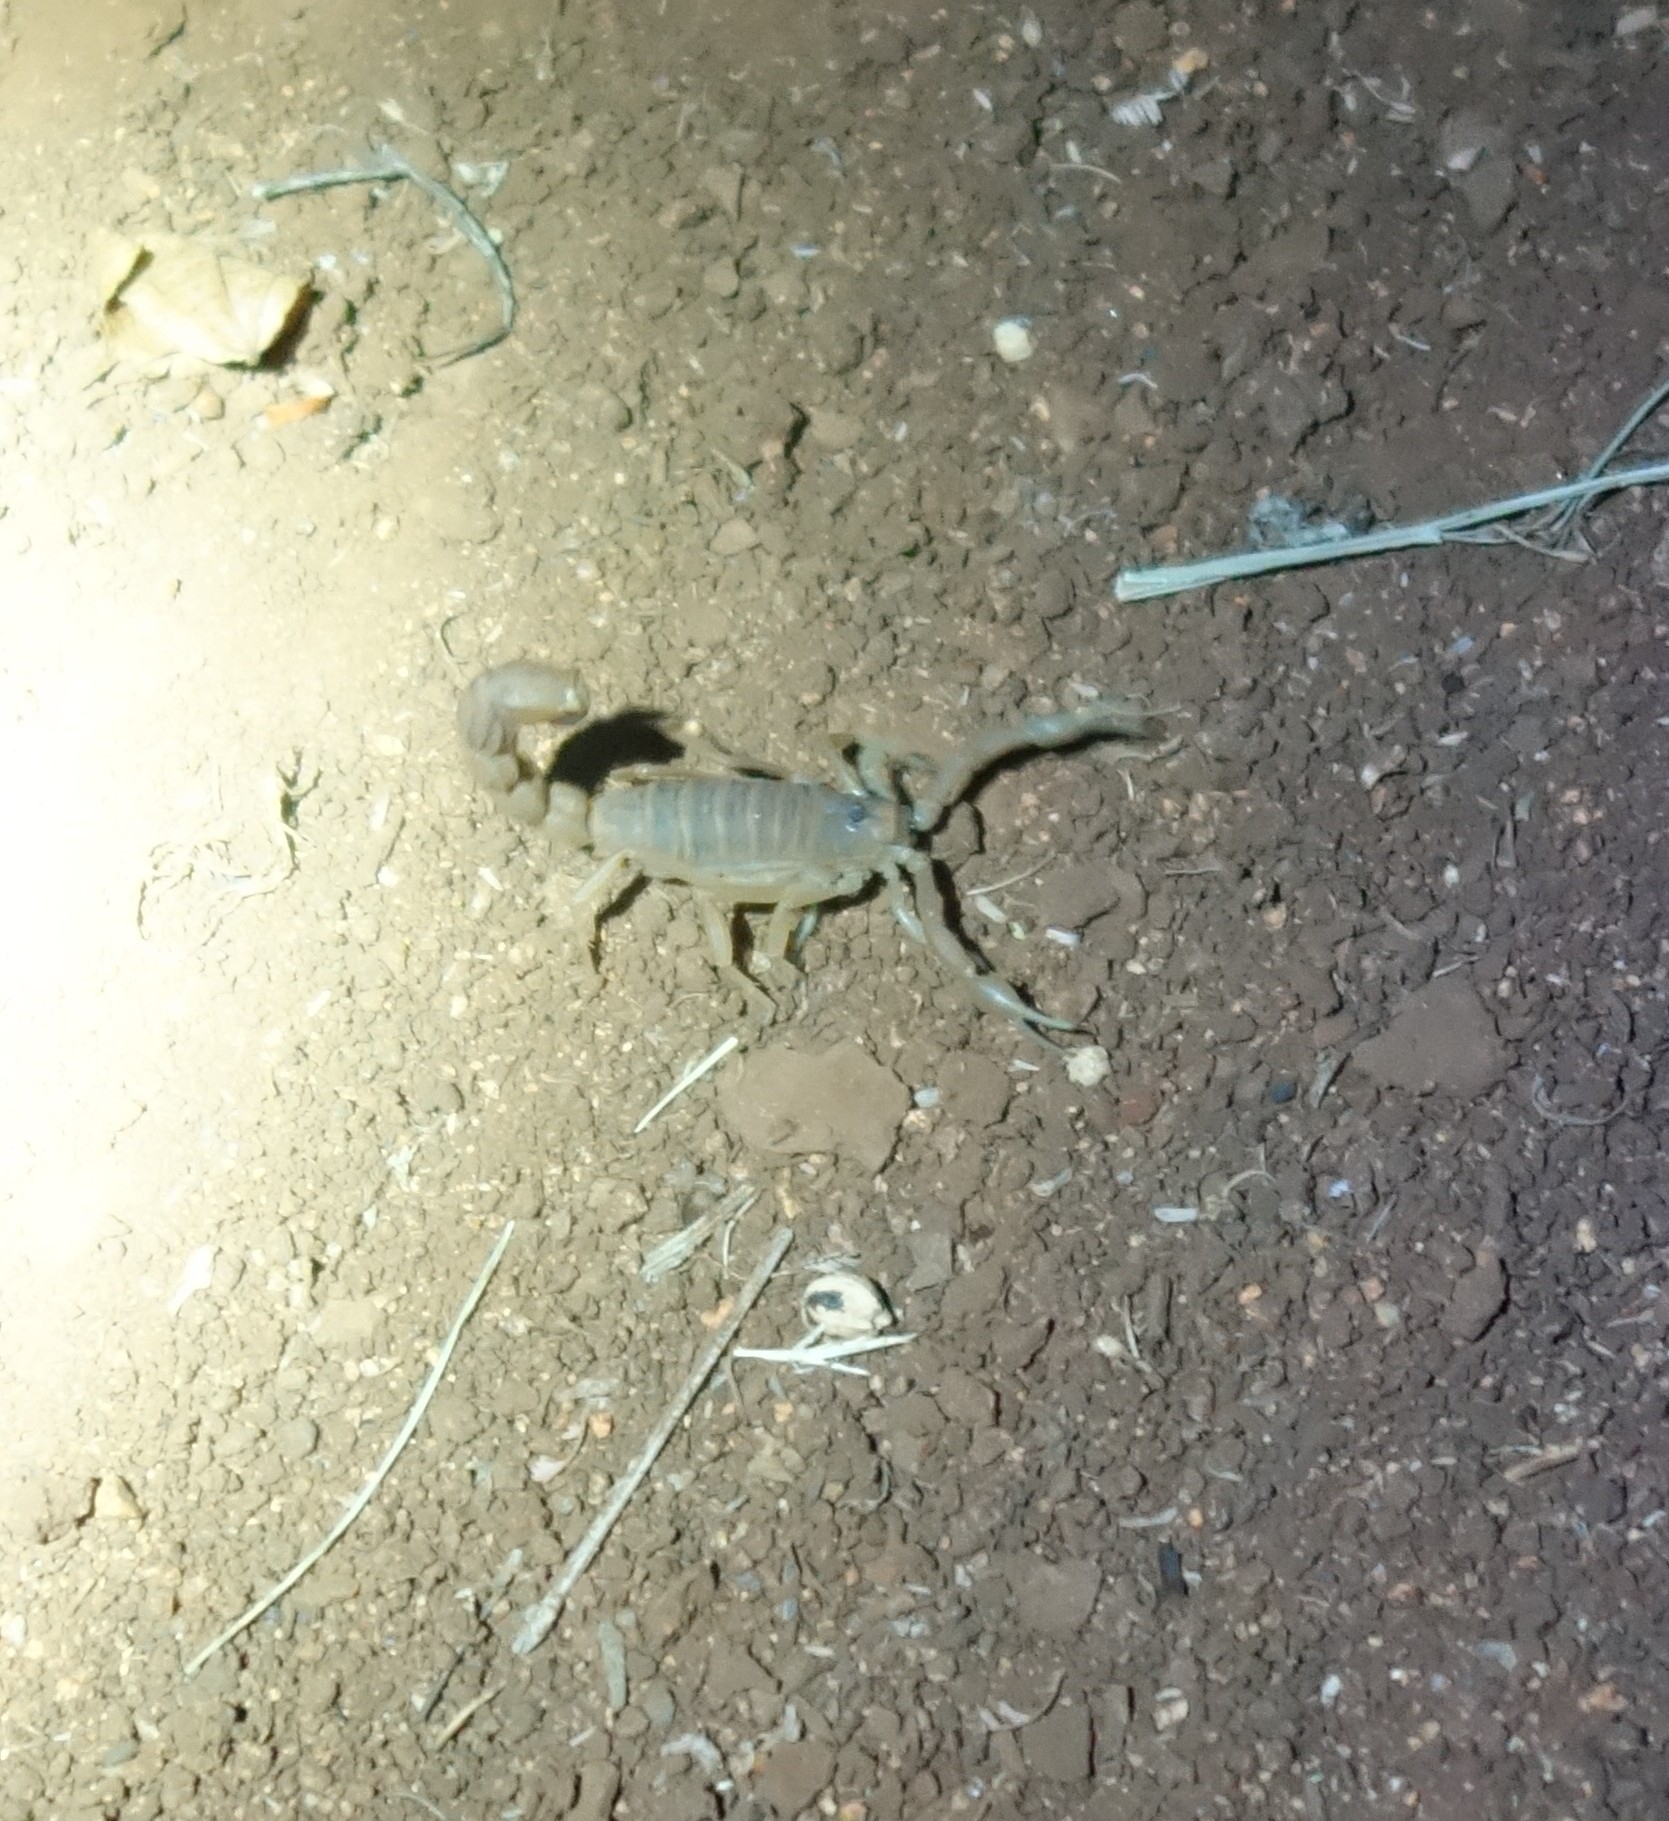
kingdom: Animalia
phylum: Arthropoda
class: Arachnida
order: Scorpiones
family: Buthidae
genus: Parabuthus
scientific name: Parabuthus mossambicensis
